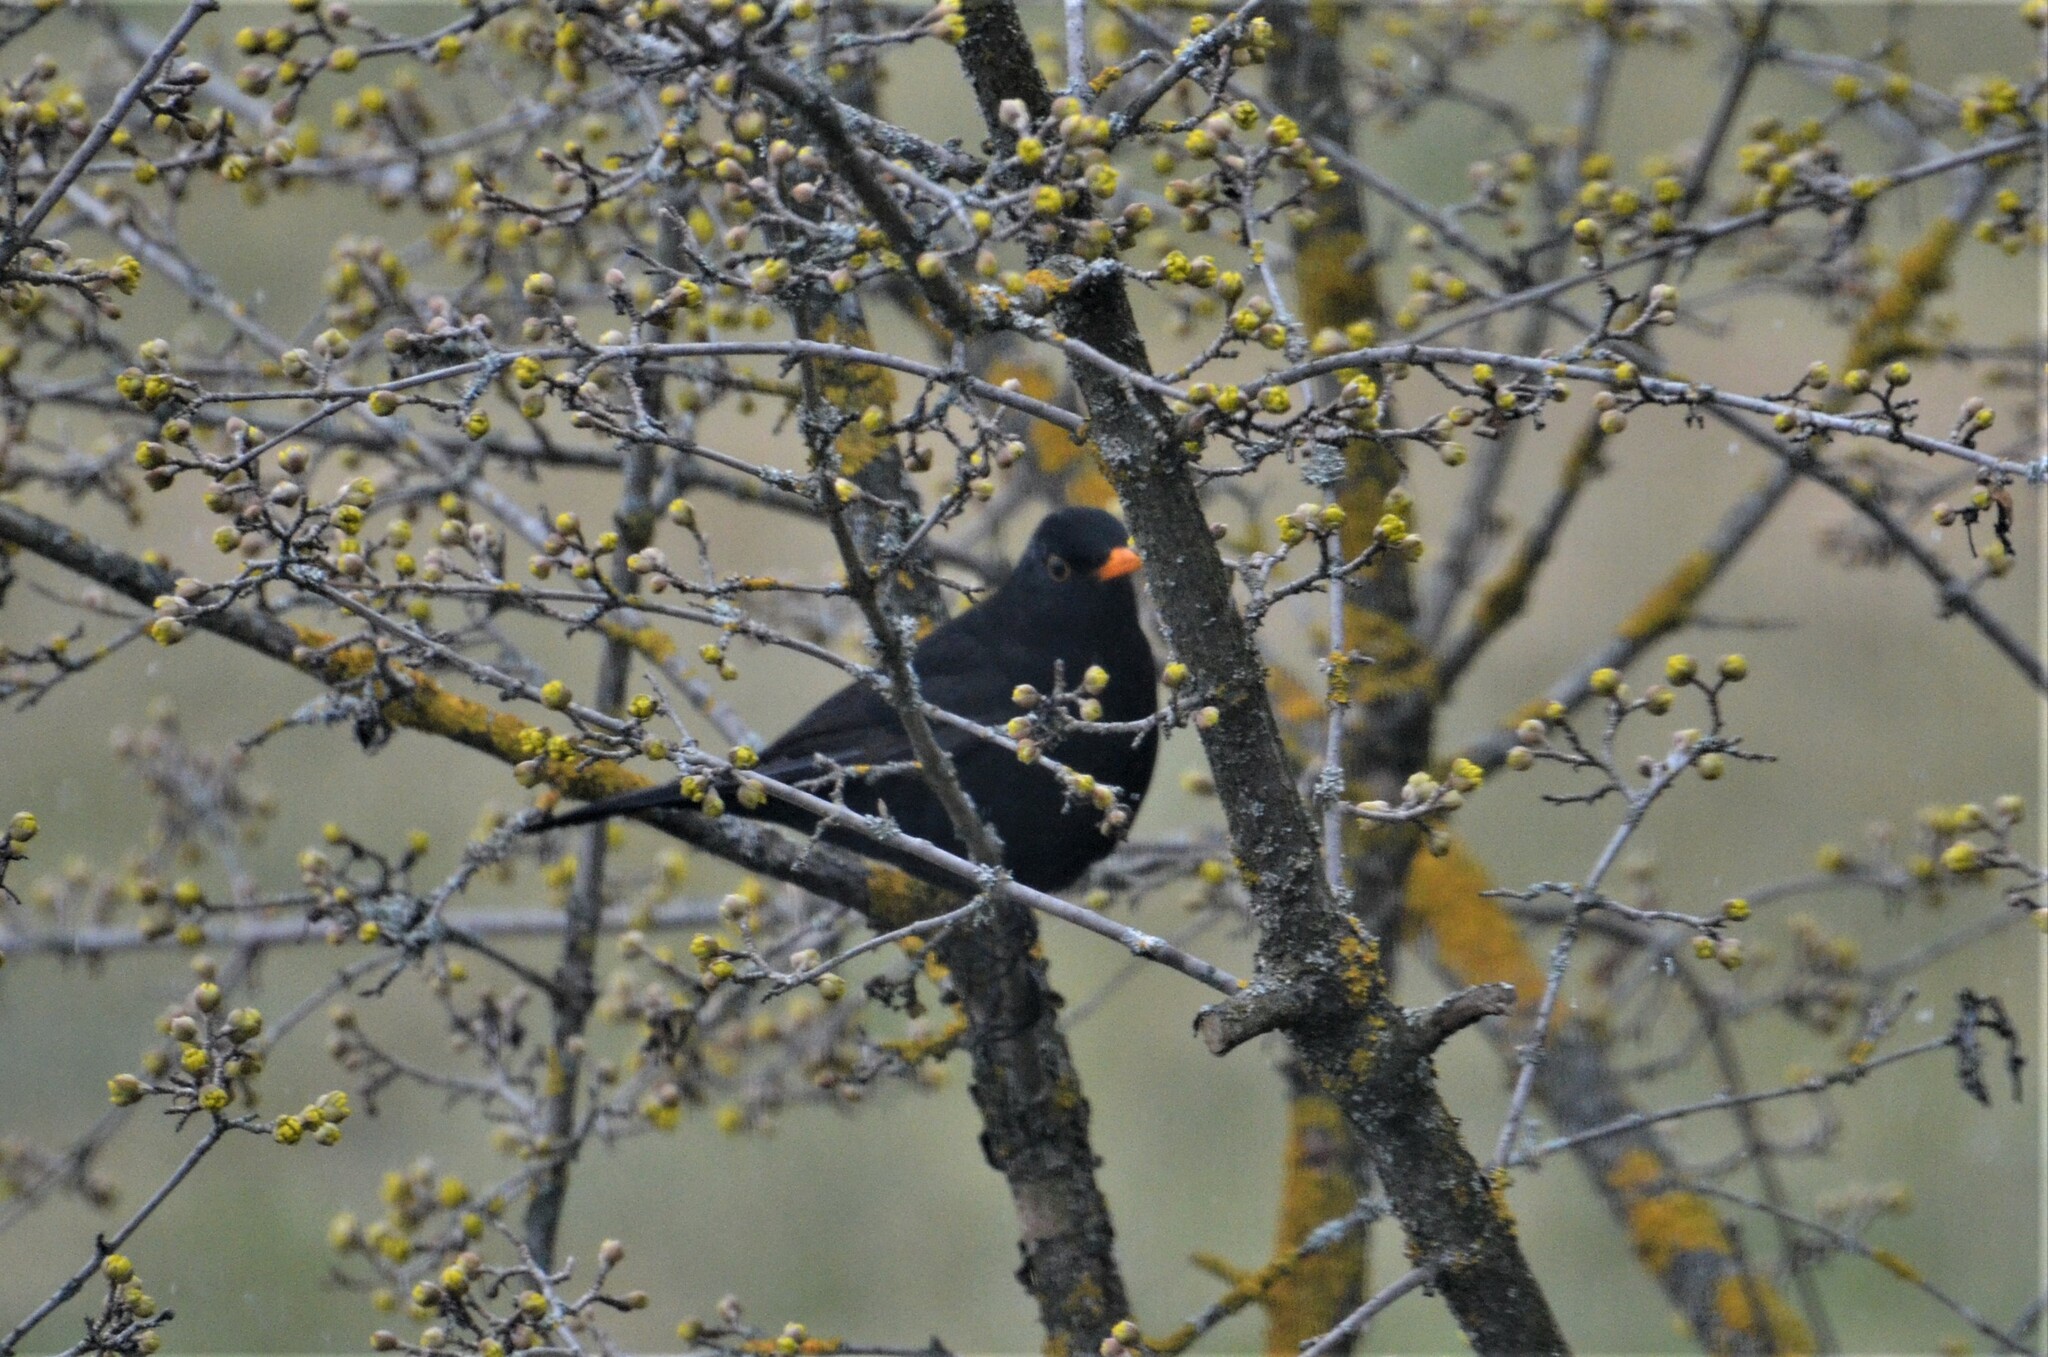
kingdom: Animalia
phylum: Chordata
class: Aves
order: Passeriformes
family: Turdidae
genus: Turdus
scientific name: Turdus merula
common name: Common blackbird
